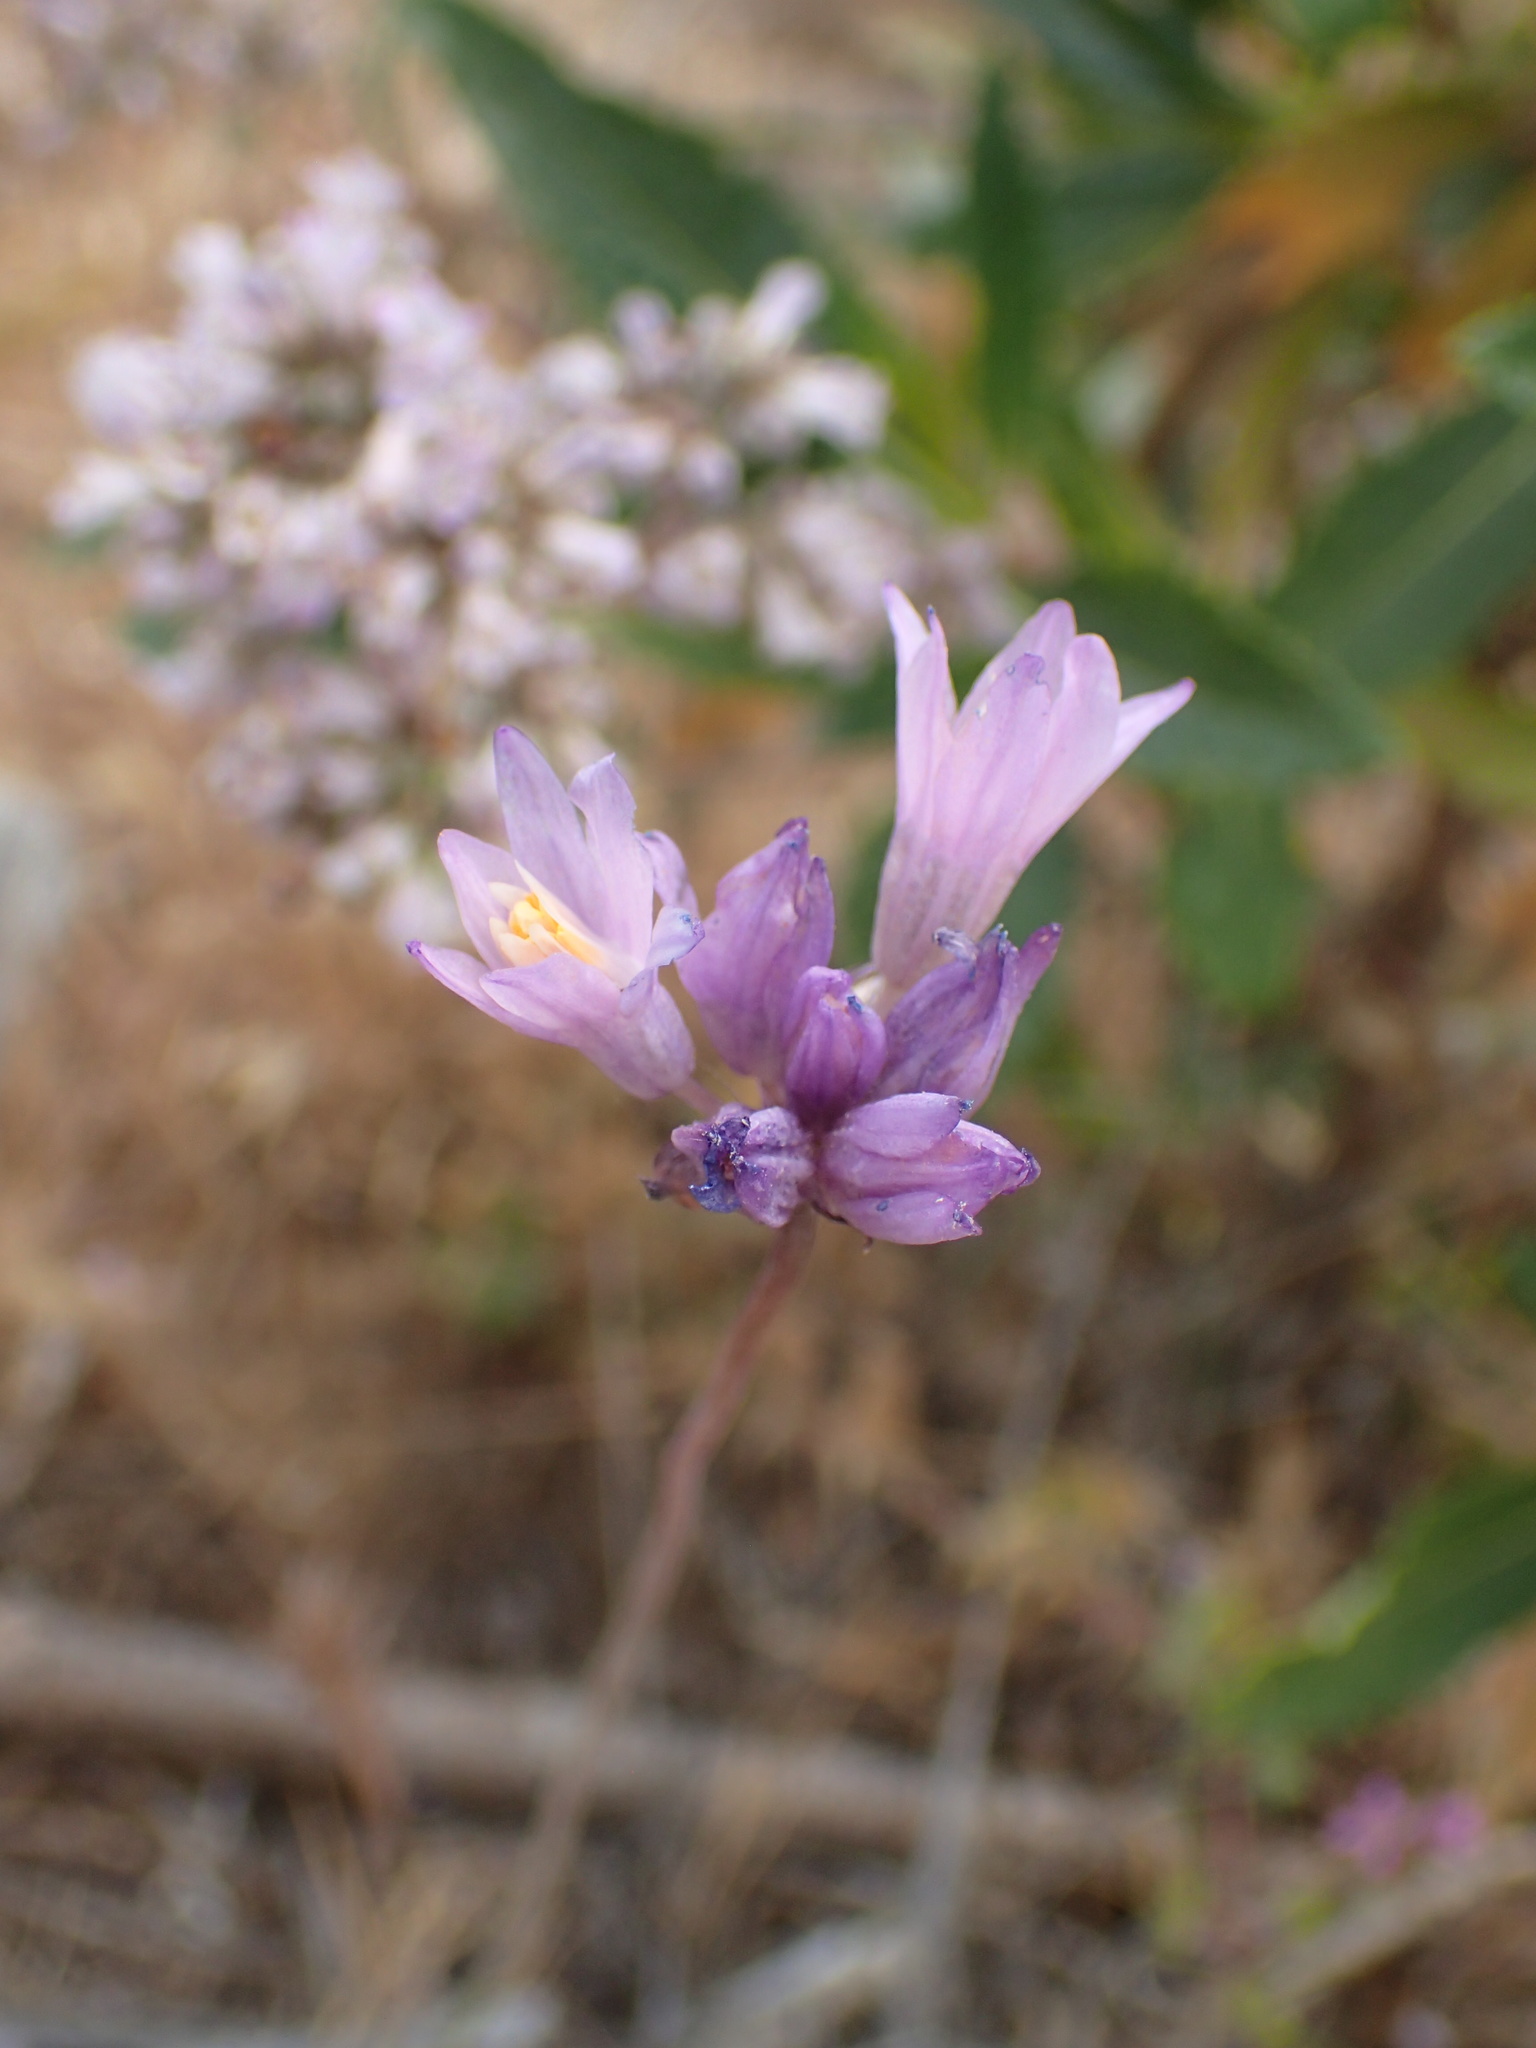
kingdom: Plantae
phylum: Tracheophyta
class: Liliopsida
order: Asparagales
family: Asparagaceae
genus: Dipterostemon
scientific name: Dipterostemon capitatus
